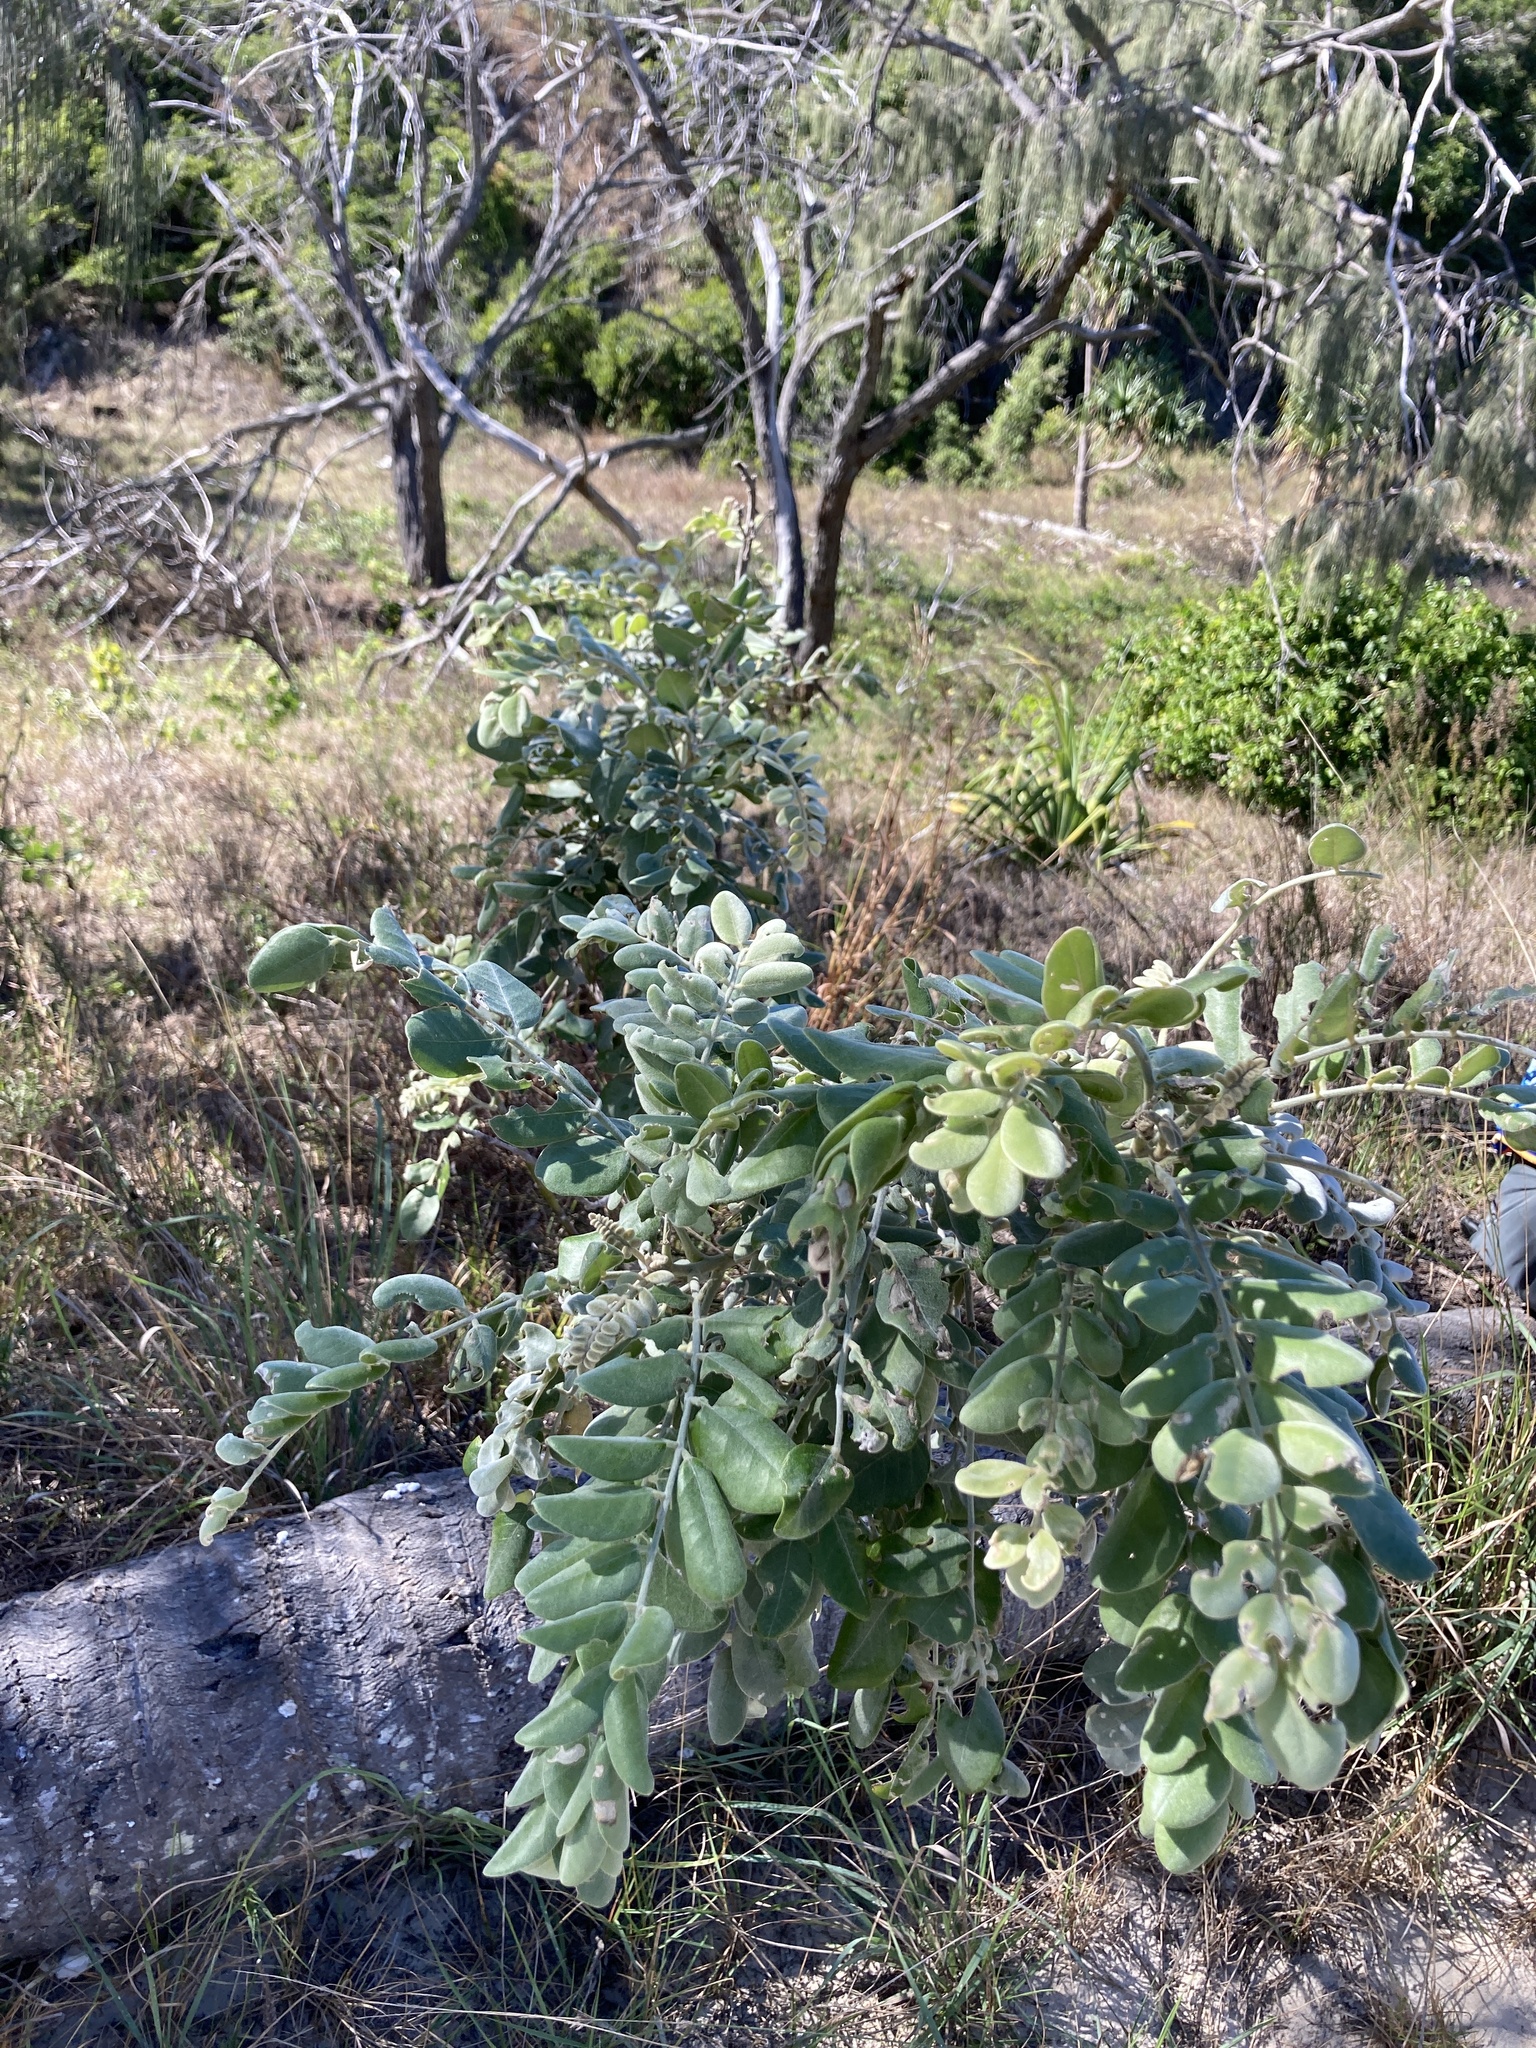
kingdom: Plantae
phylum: Tracheophyta
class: Magnoliopsida
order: Fabales
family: Fabaceae
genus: Sophora
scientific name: Sophora tomentosa
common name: Yellow necklacepod
